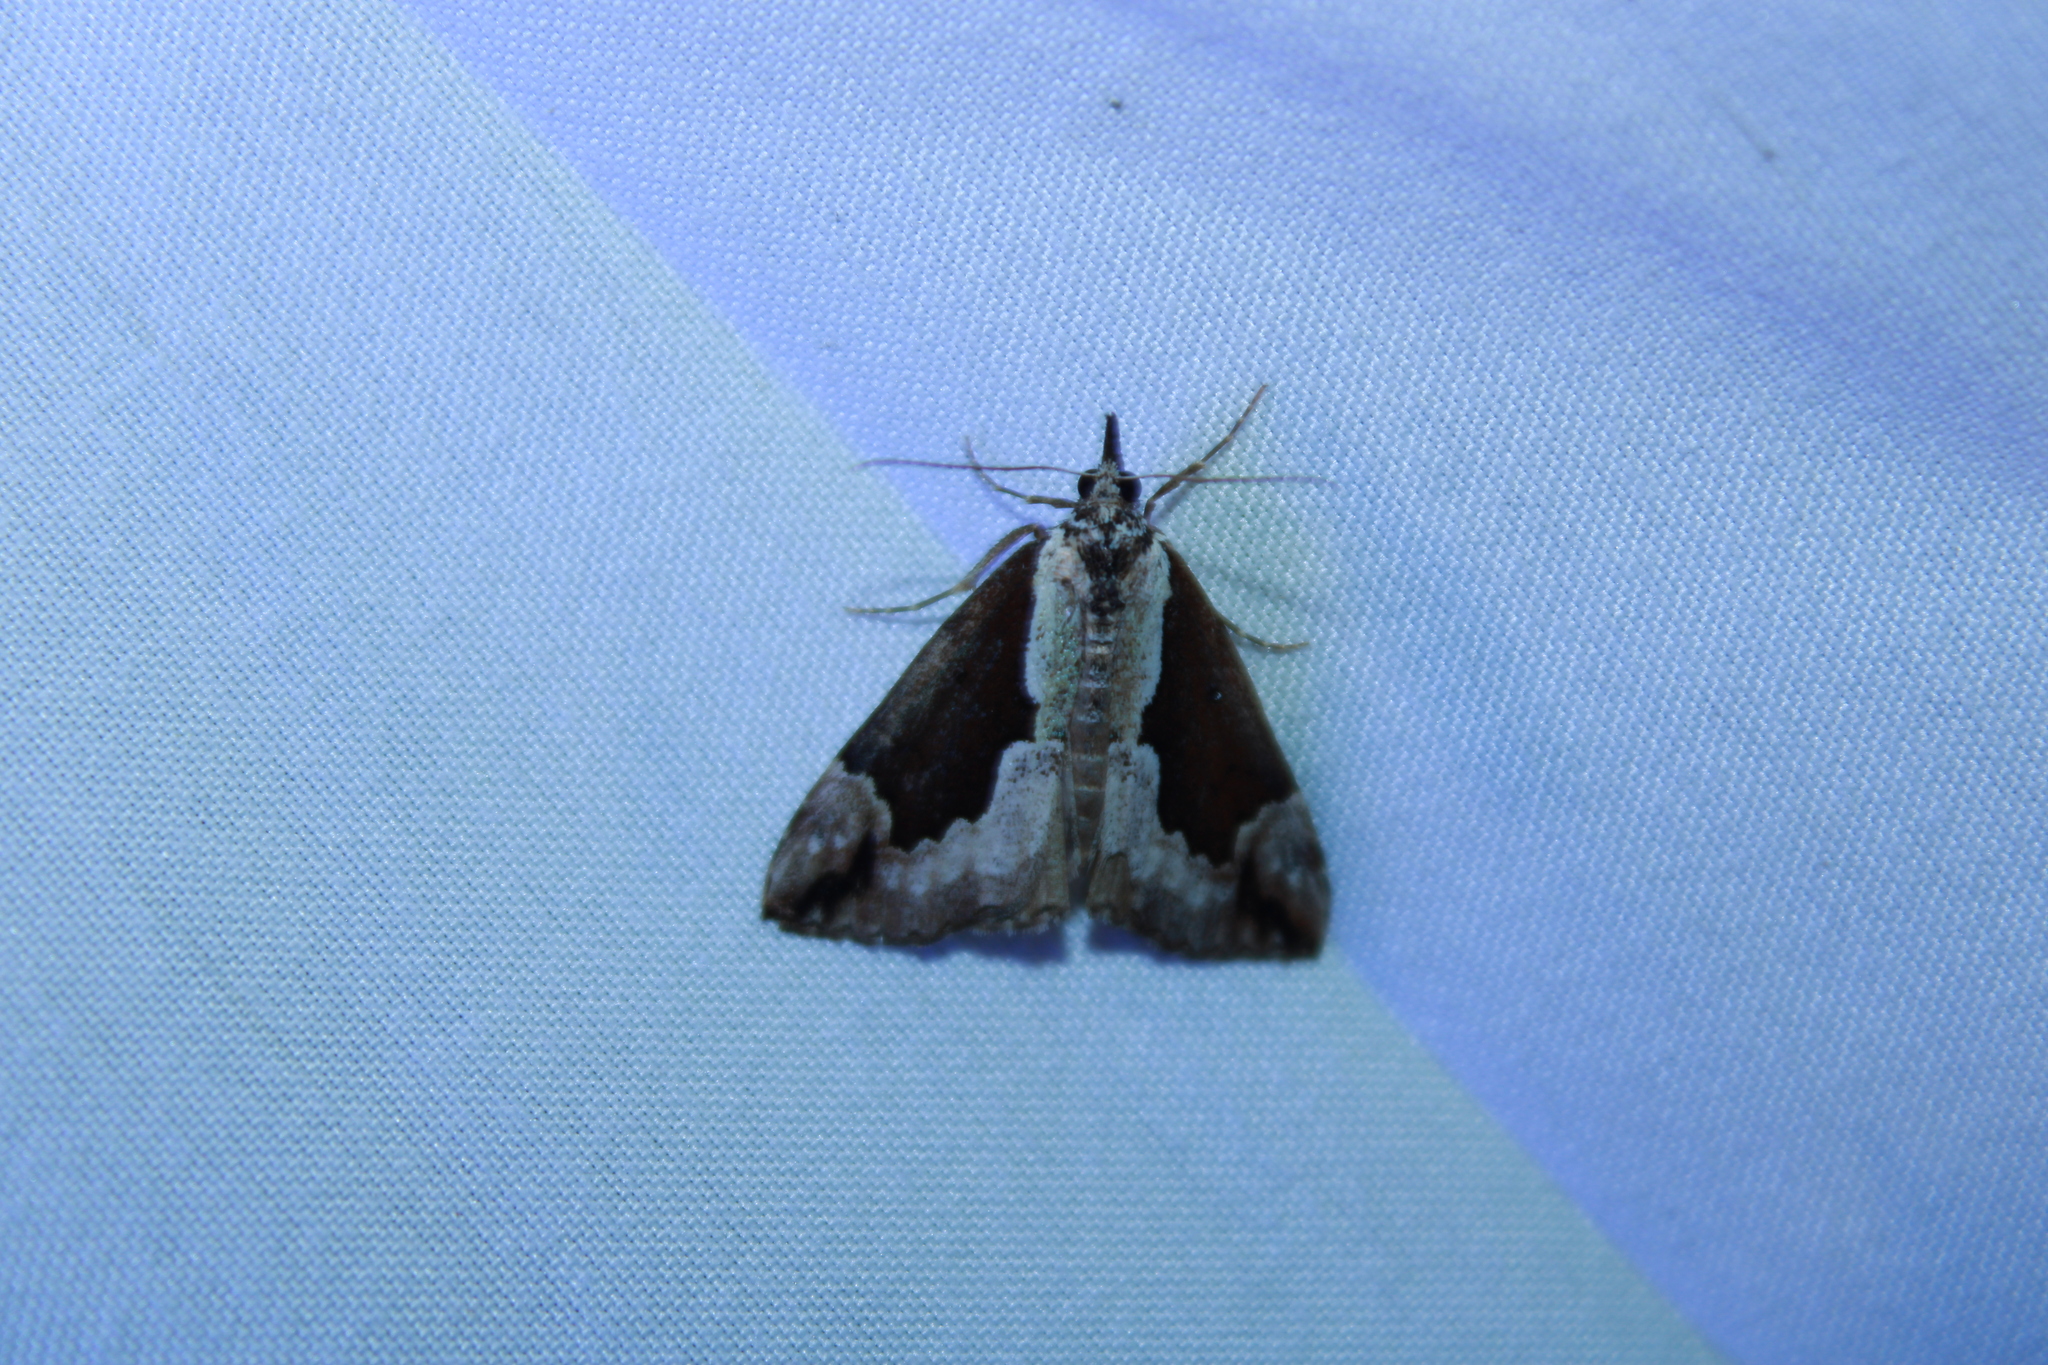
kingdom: Animalia
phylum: Arthropoda
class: Insecta
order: Lepidoptera
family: Erebidae
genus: Hypena
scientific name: Hypena baltimoralis
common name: Baltimore snout
